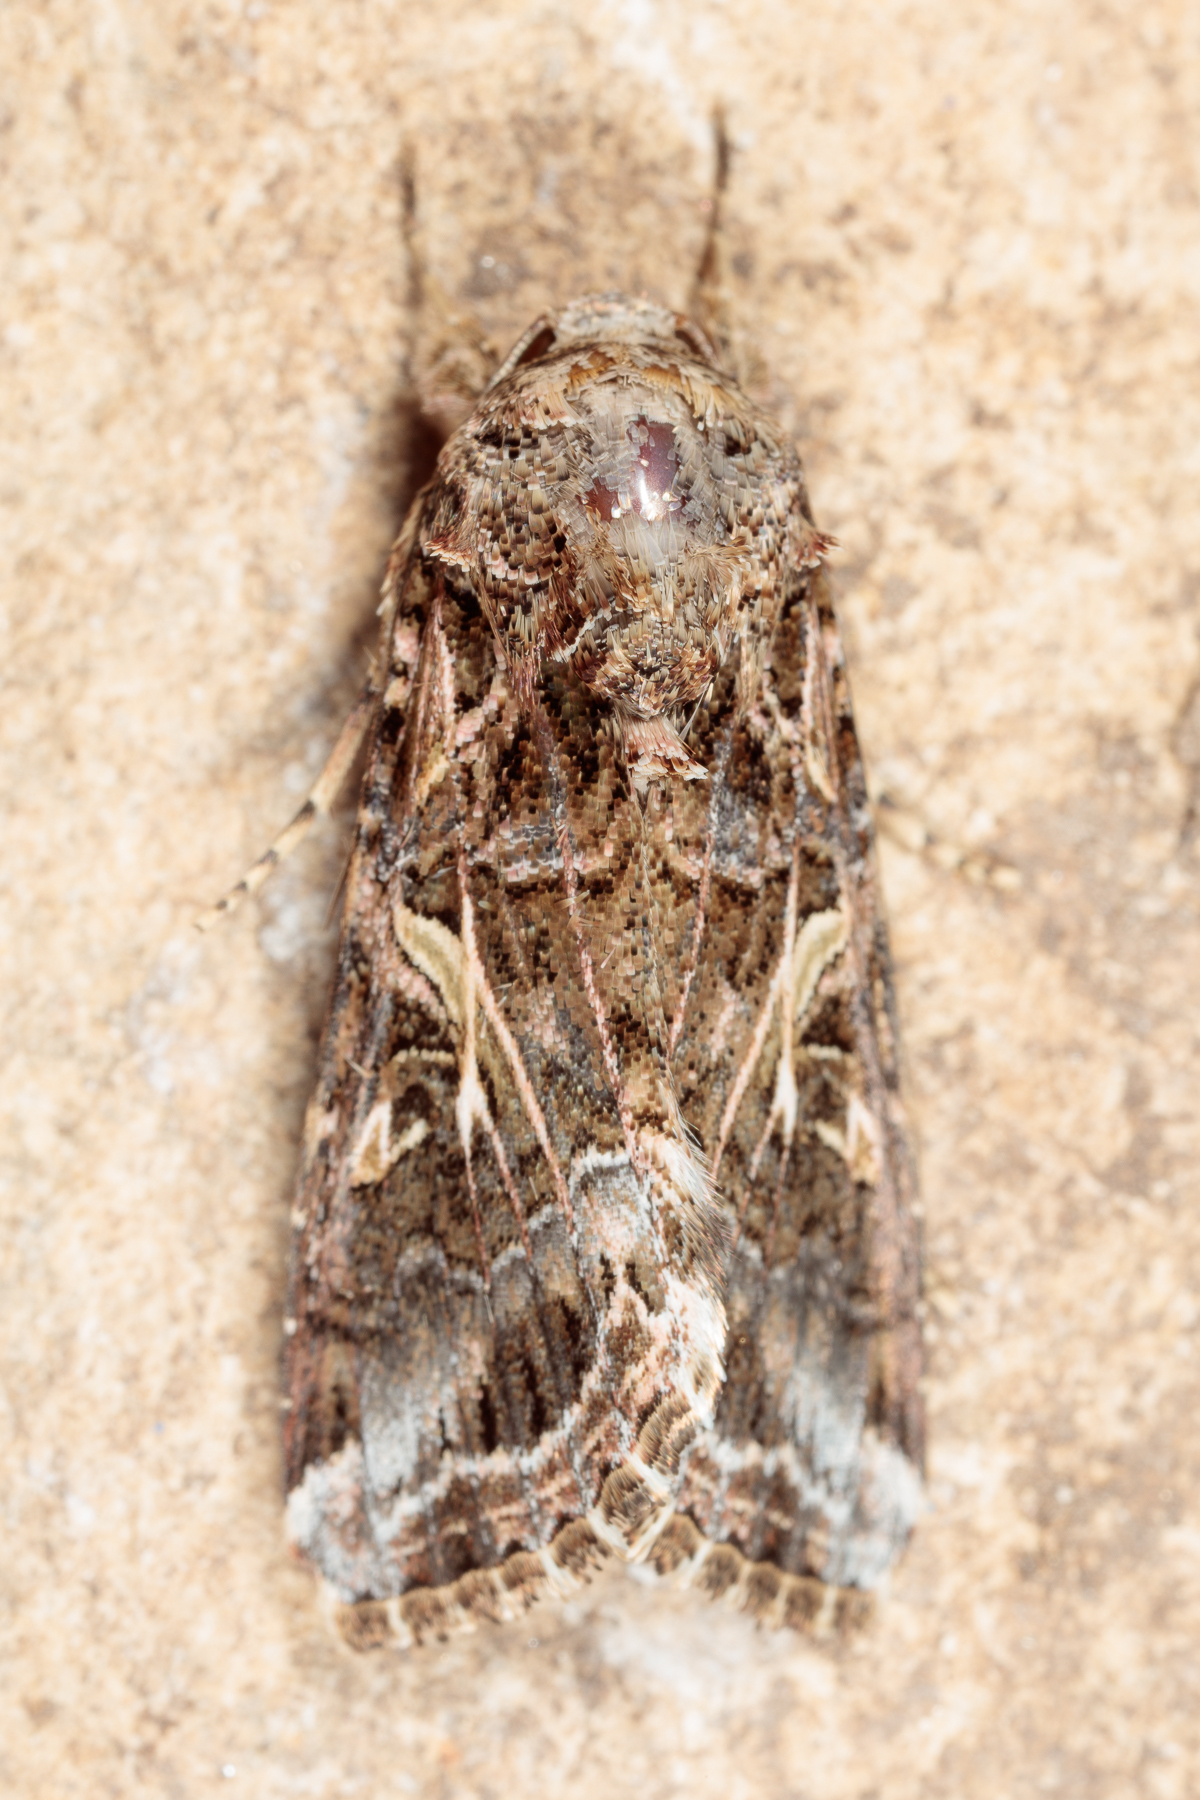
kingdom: Animalia
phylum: Arthropoda
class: Insecta
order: Lepidoptera
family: Noctuidae
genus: Spodoptera
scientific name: Spodoptera ornithogalli
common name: Yellow-striped armyworm
